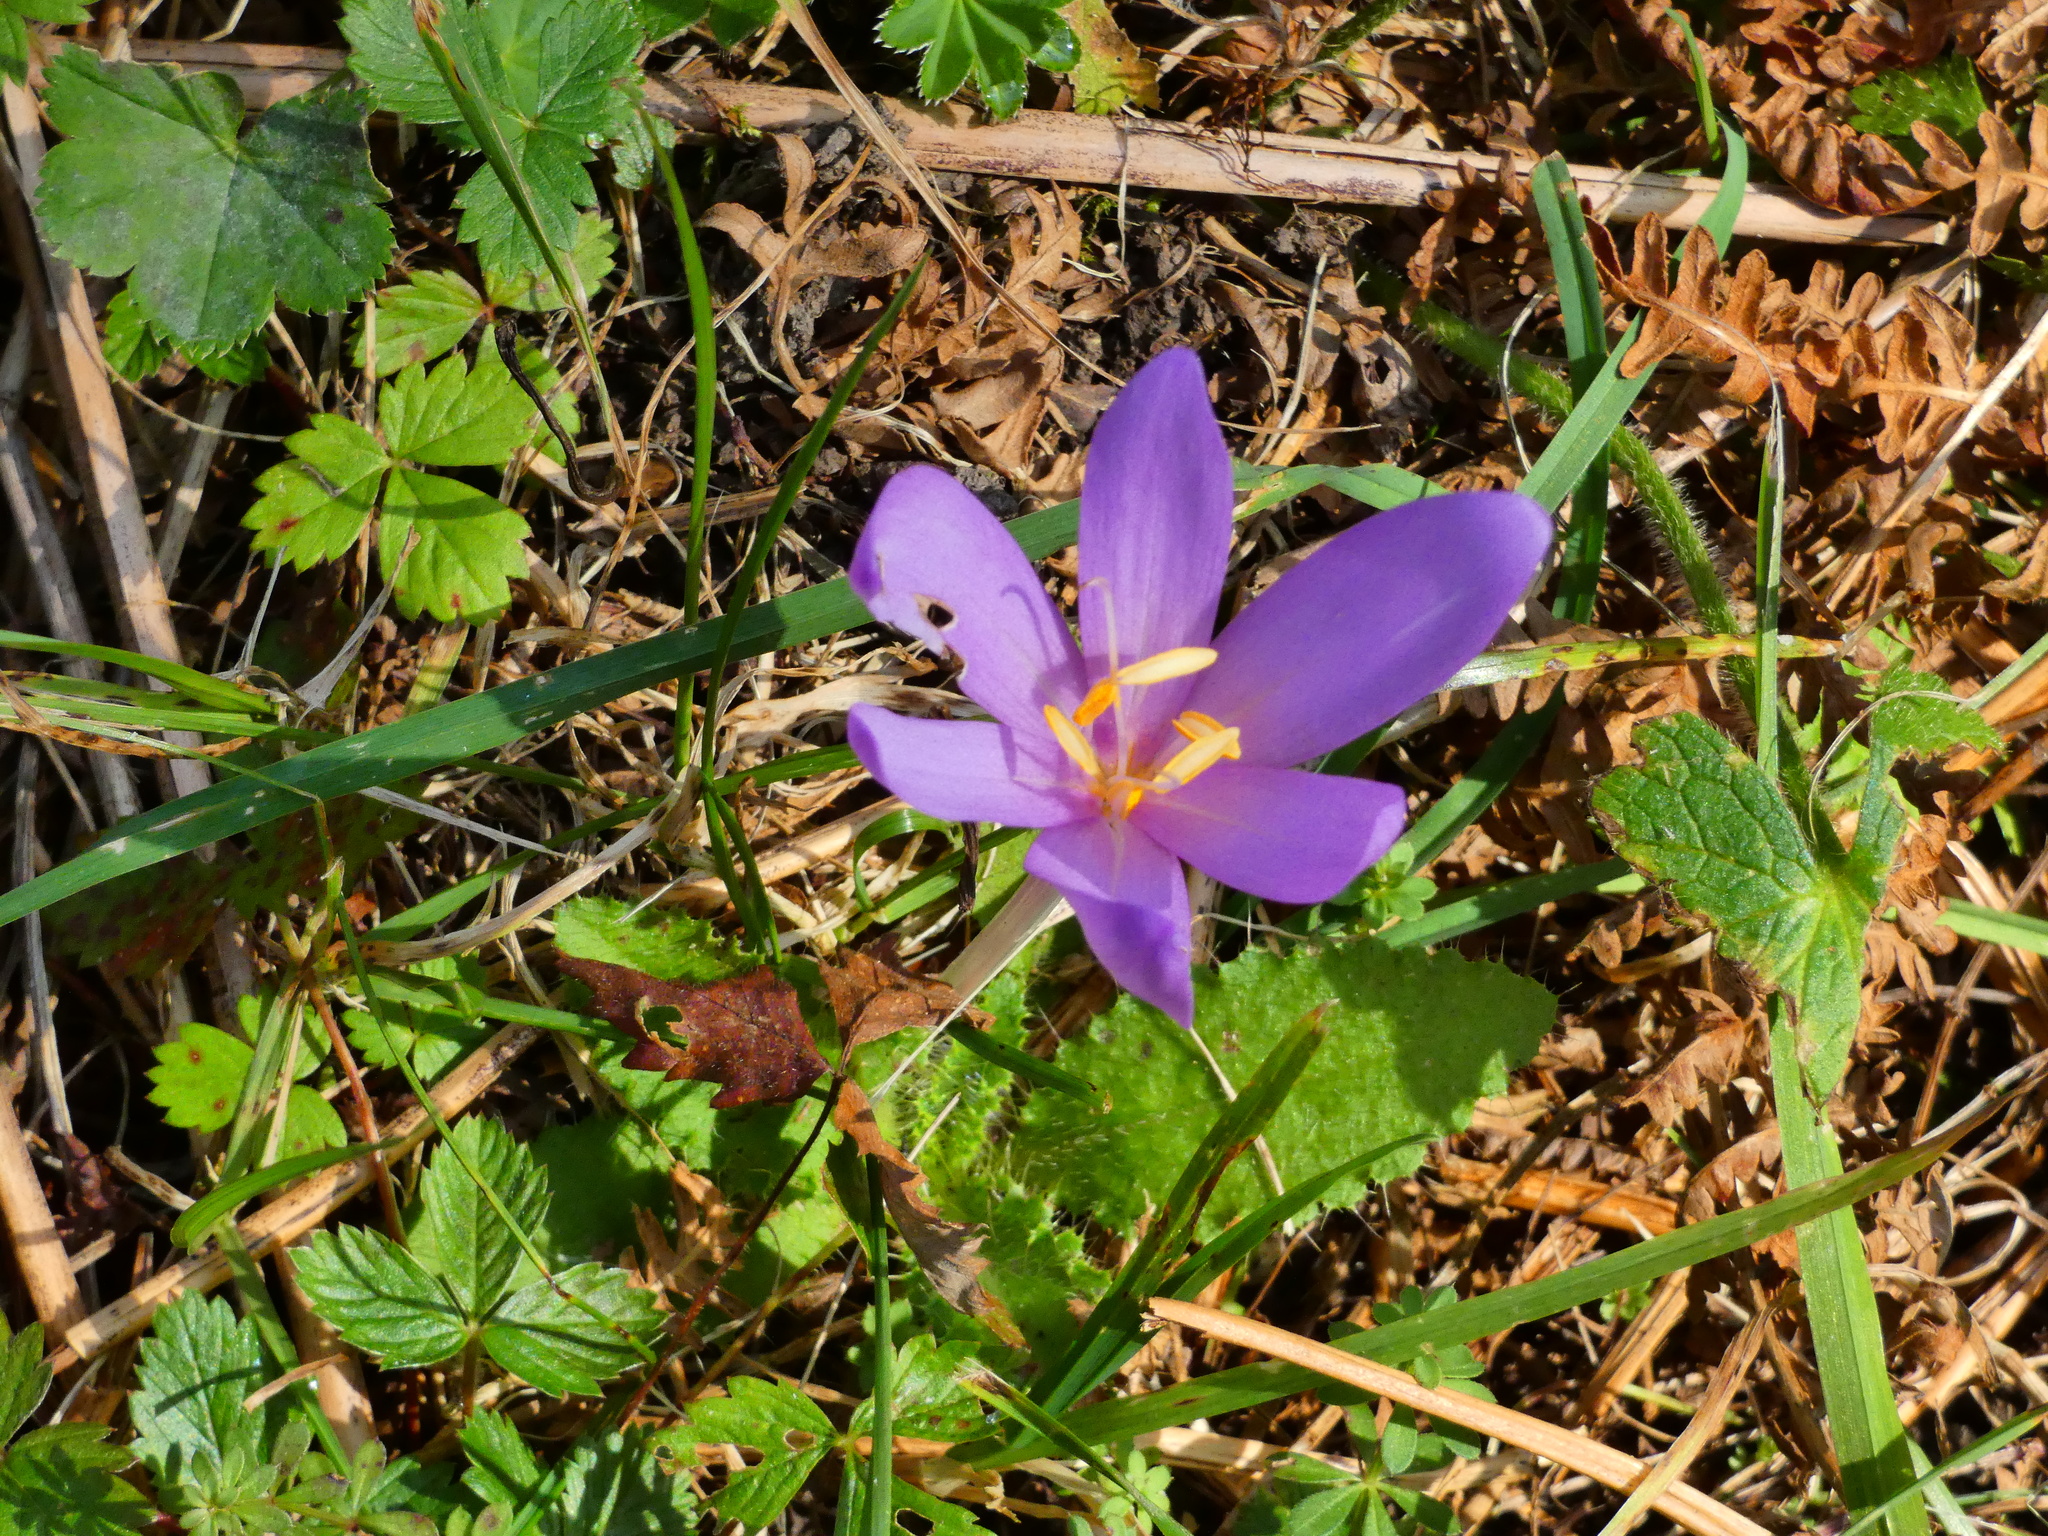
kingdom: Plantae
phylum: Tracheophyta
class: Liliopsida
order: Liliales
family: Colchicaceae
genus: Colchicum
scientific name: Colchicum autumnale
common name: Autumn crocus
